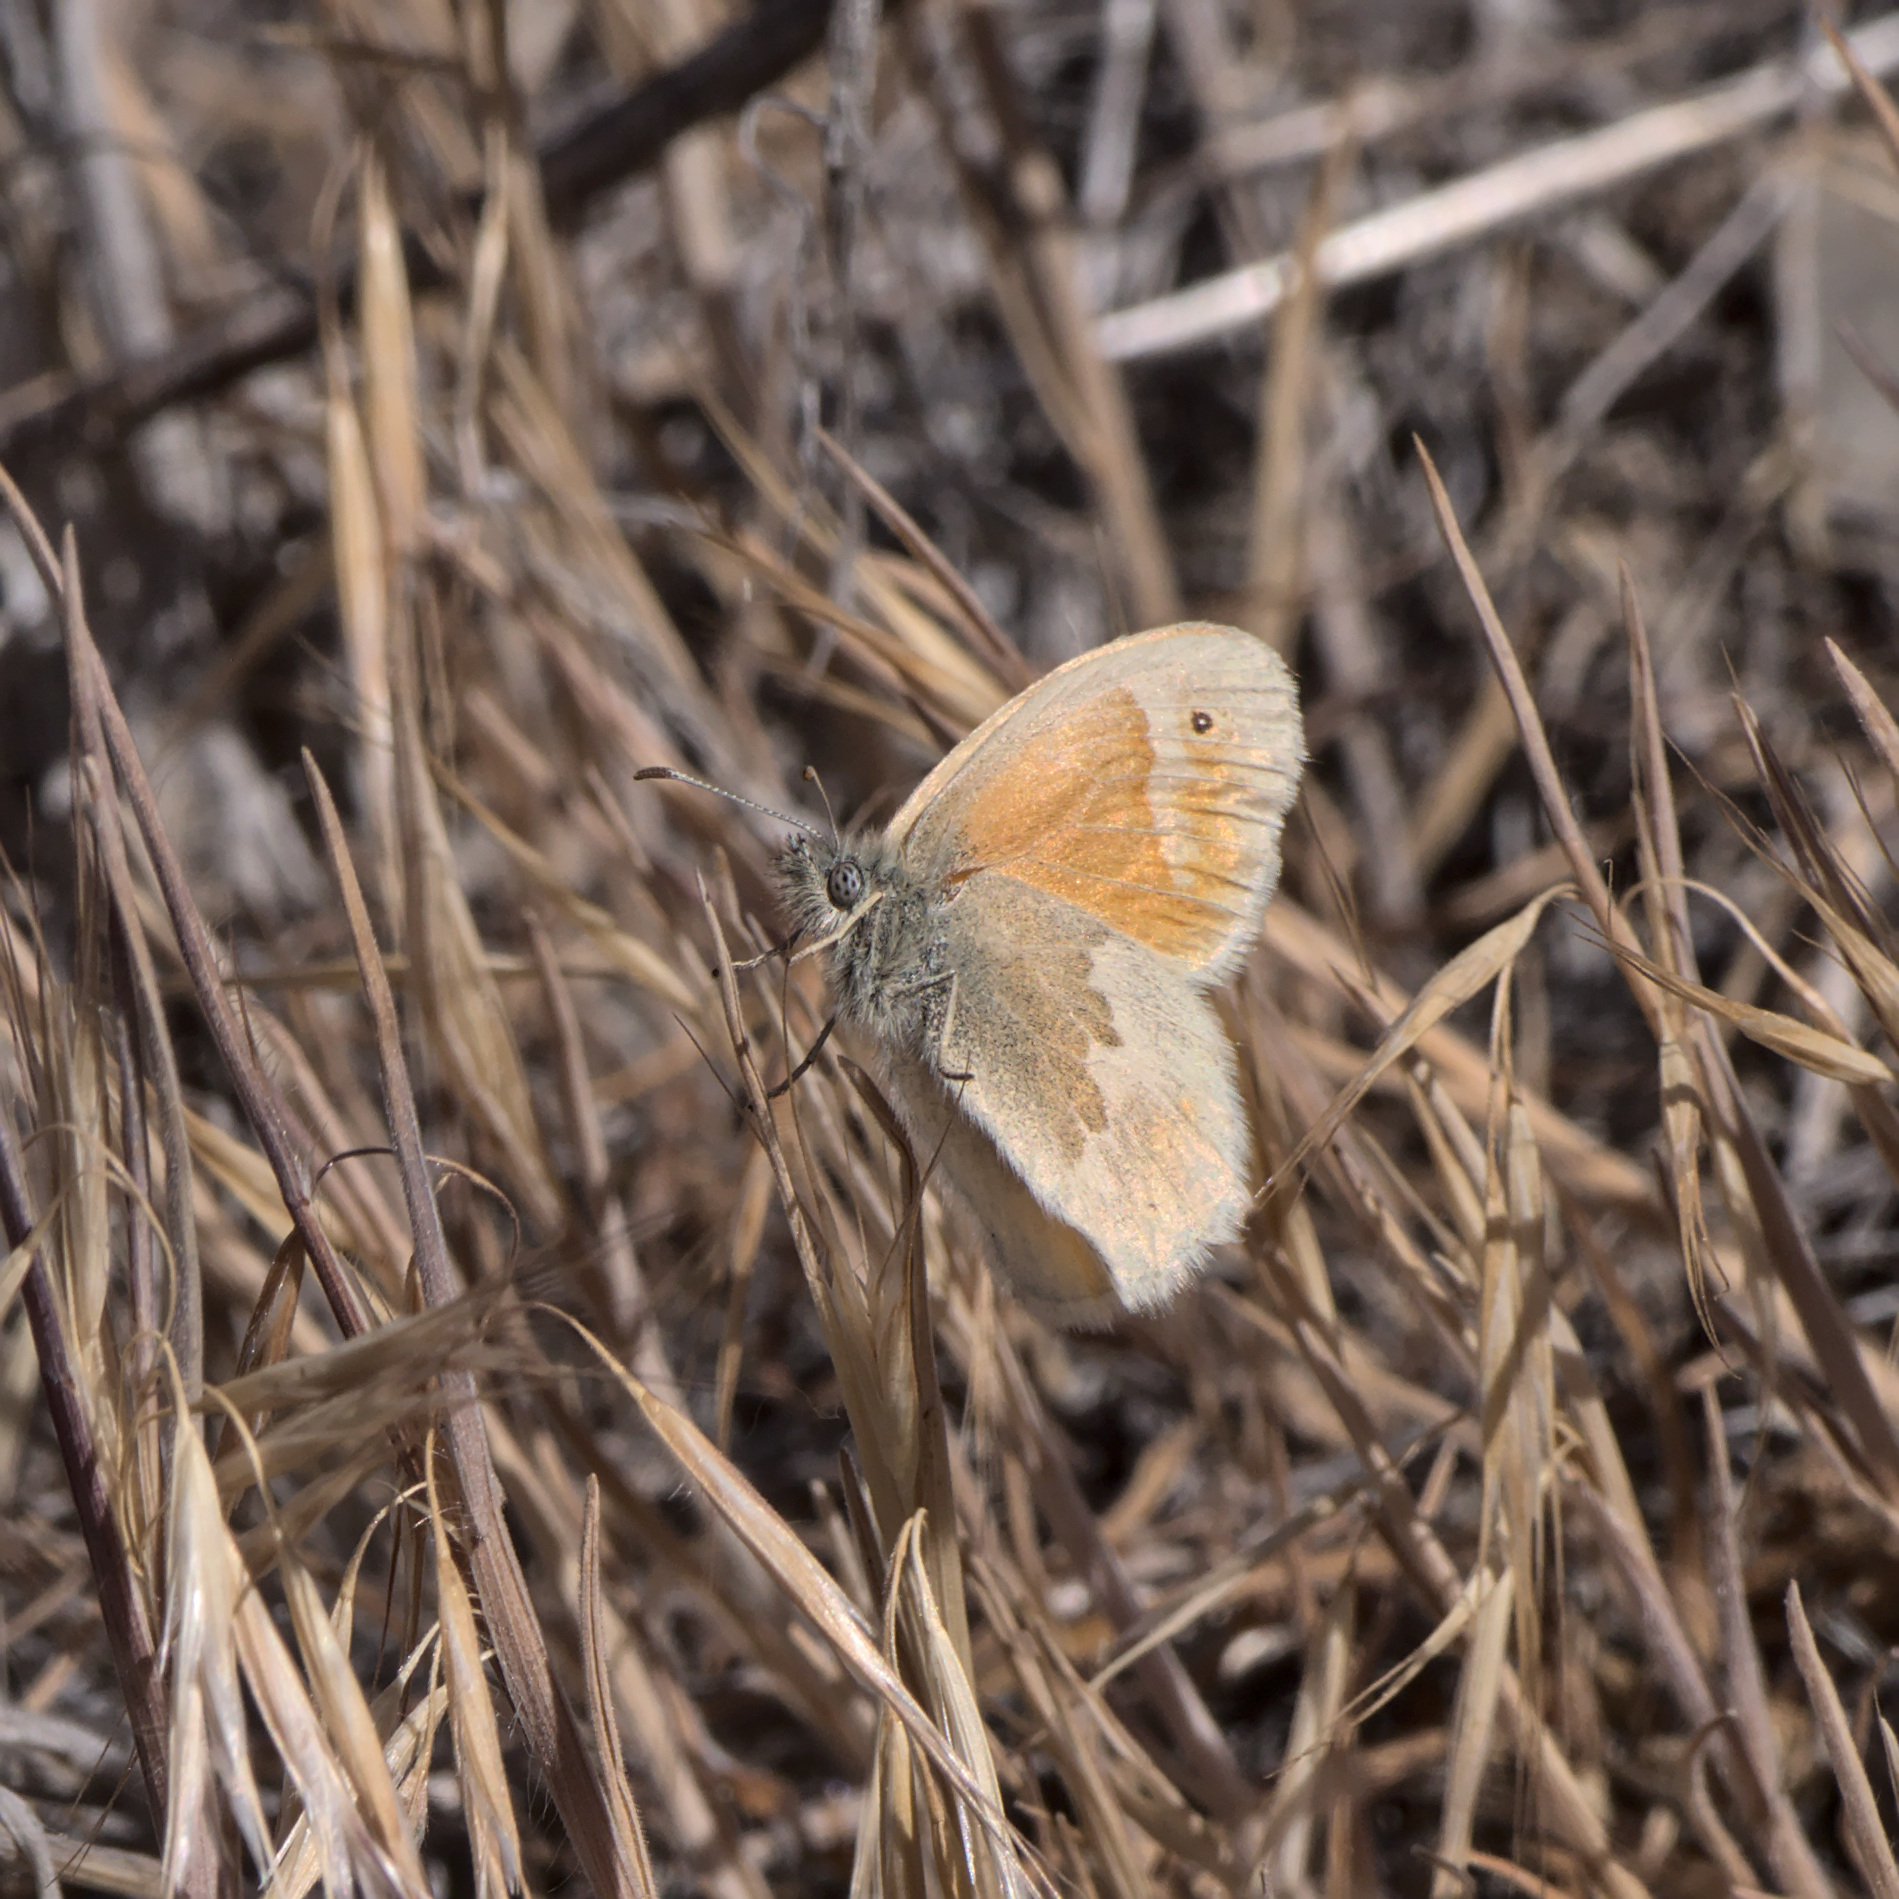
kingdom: Animalia
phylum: Arthropoda
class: Insecta
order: Lepidoptera
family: Nymphalidae
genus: Coenonympha
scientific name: Coenonympha california
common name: Common ringlet
